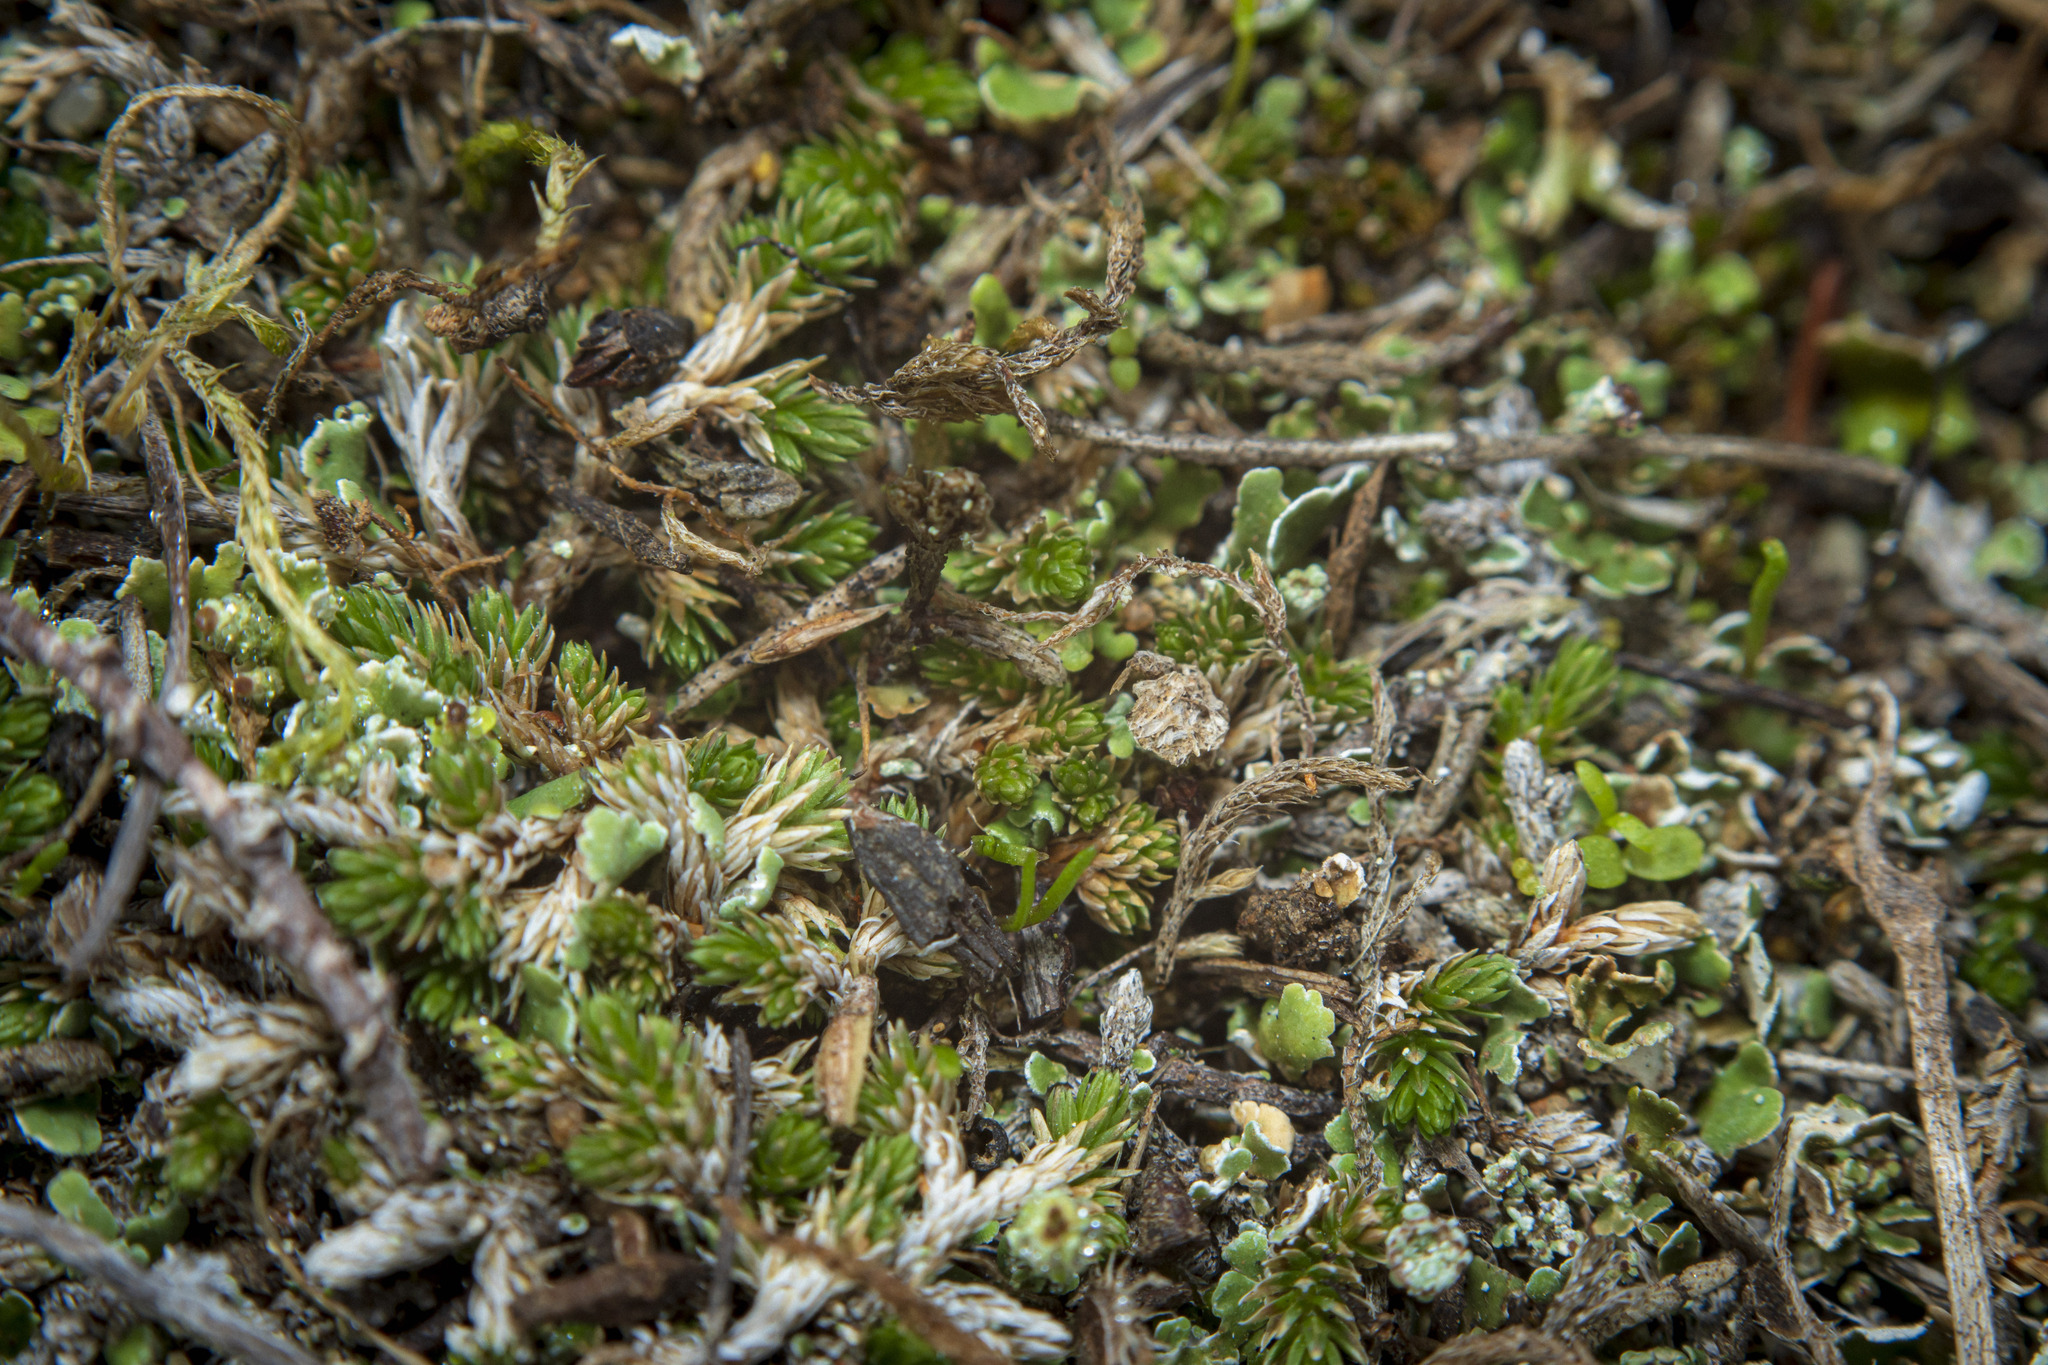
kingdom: Plantae
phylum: Tracheophyta
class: Lycopodiopsida
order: Selaginellales
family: Selaginellaceae
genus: Selaginella
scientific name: Selaginella cinerascens
